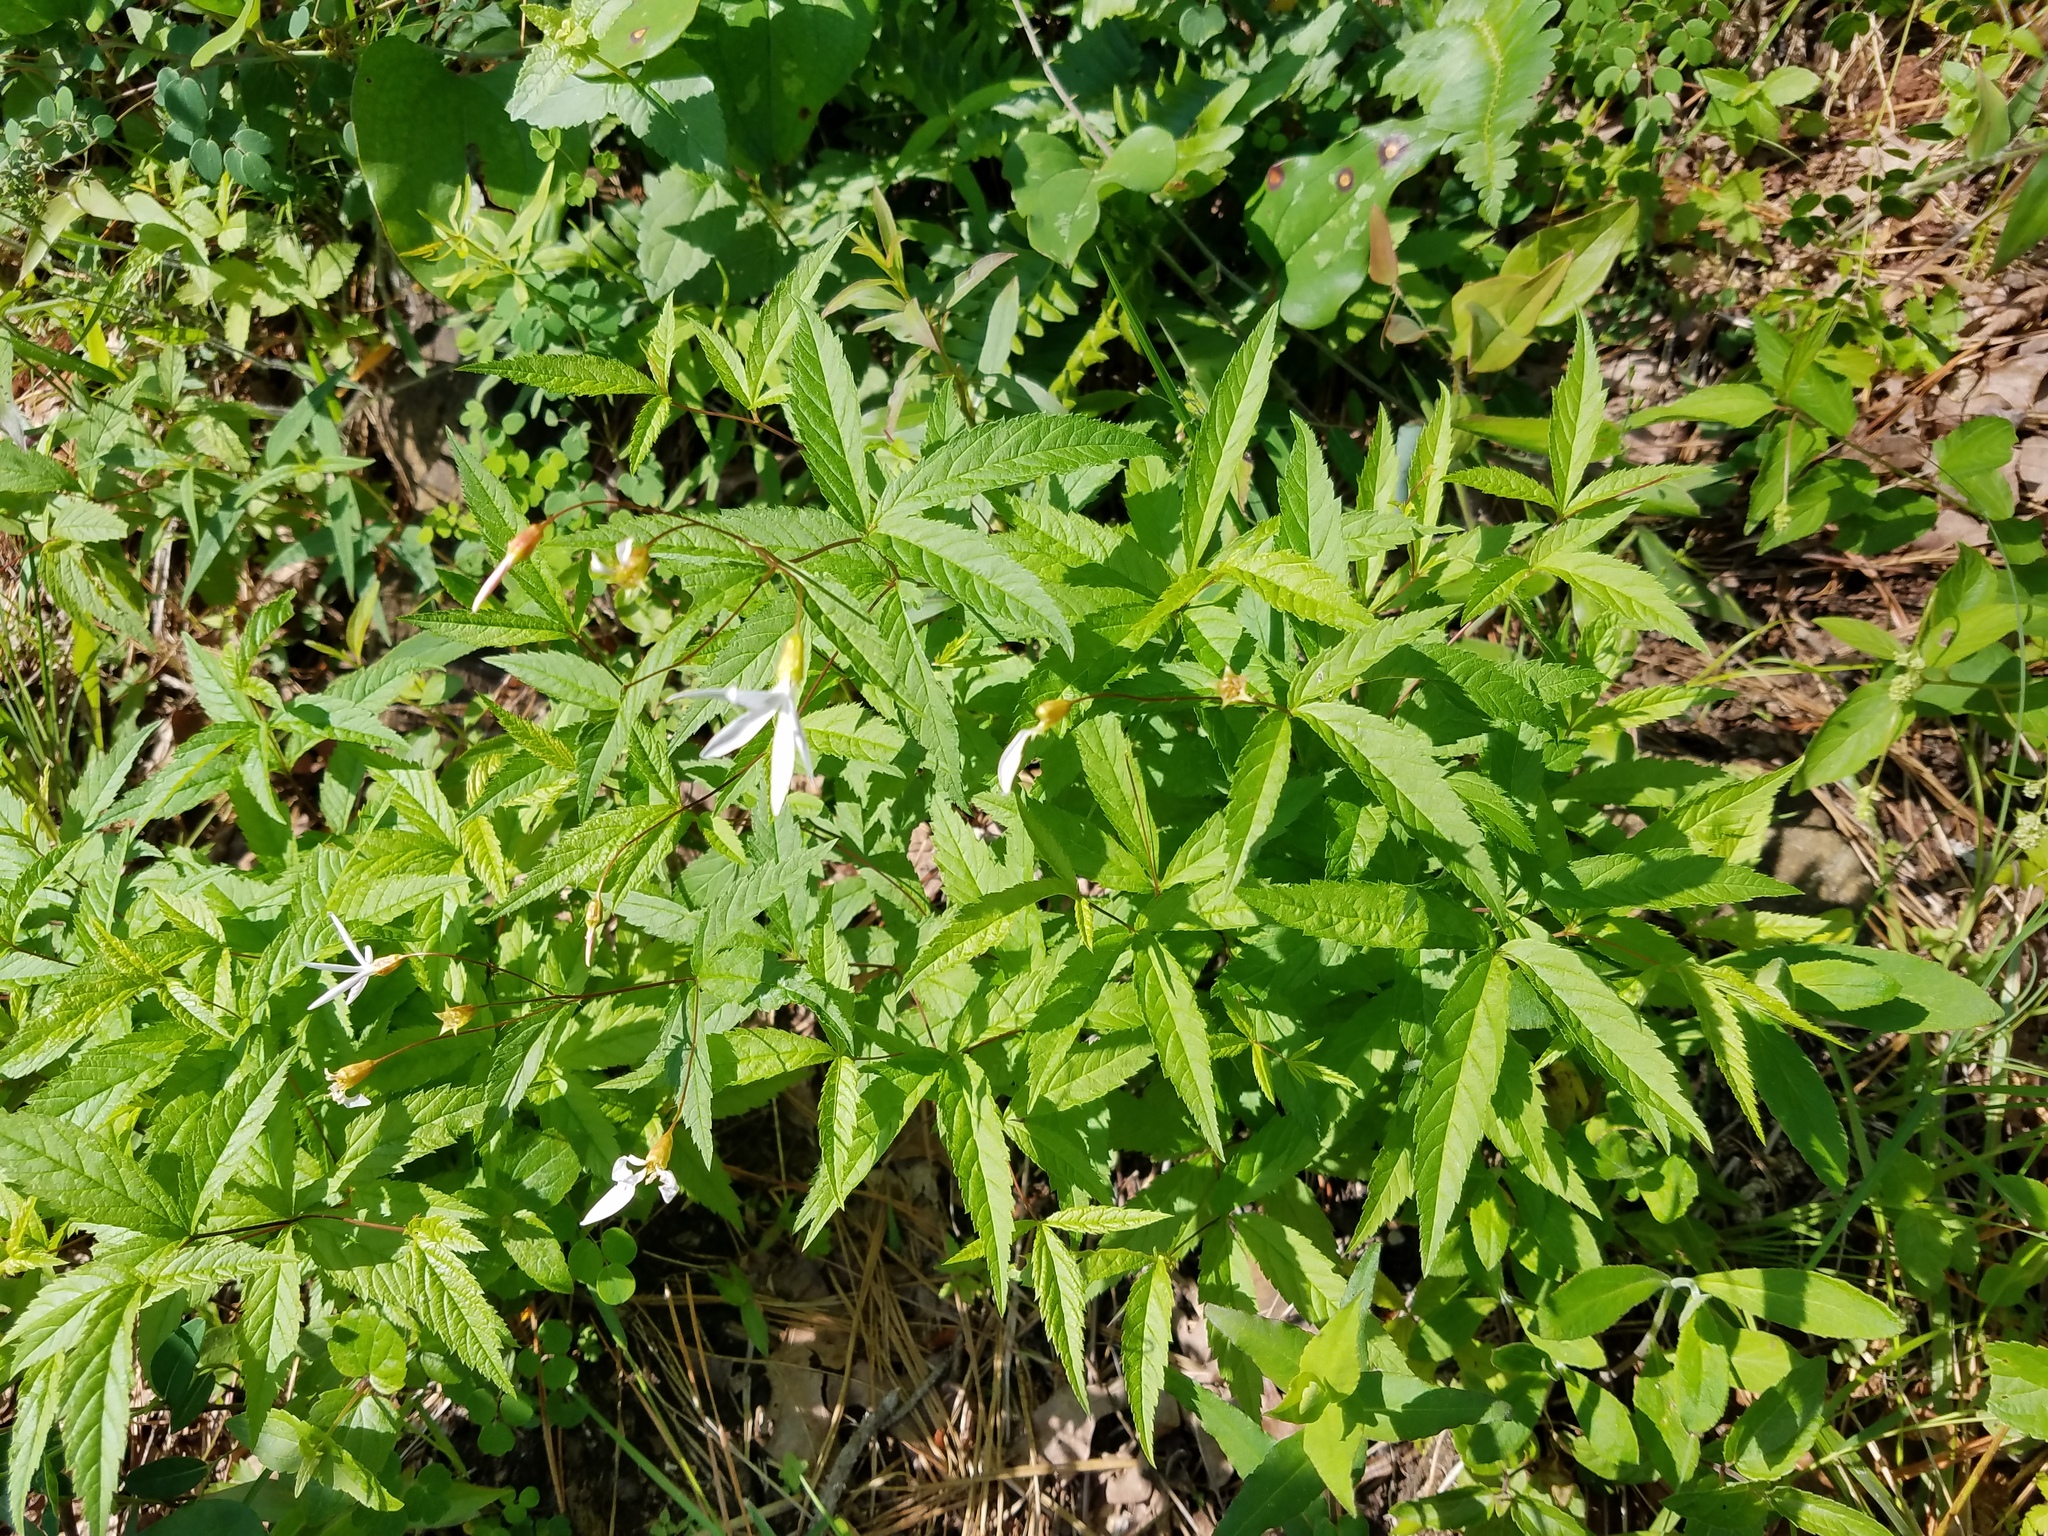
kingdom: Plantae
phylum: Tracheophyta
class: Magnoliopsida
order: Rosales
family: Rosaceae
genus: Gillenia
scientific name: Gillenia trifoliata
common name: Bowman's-root
